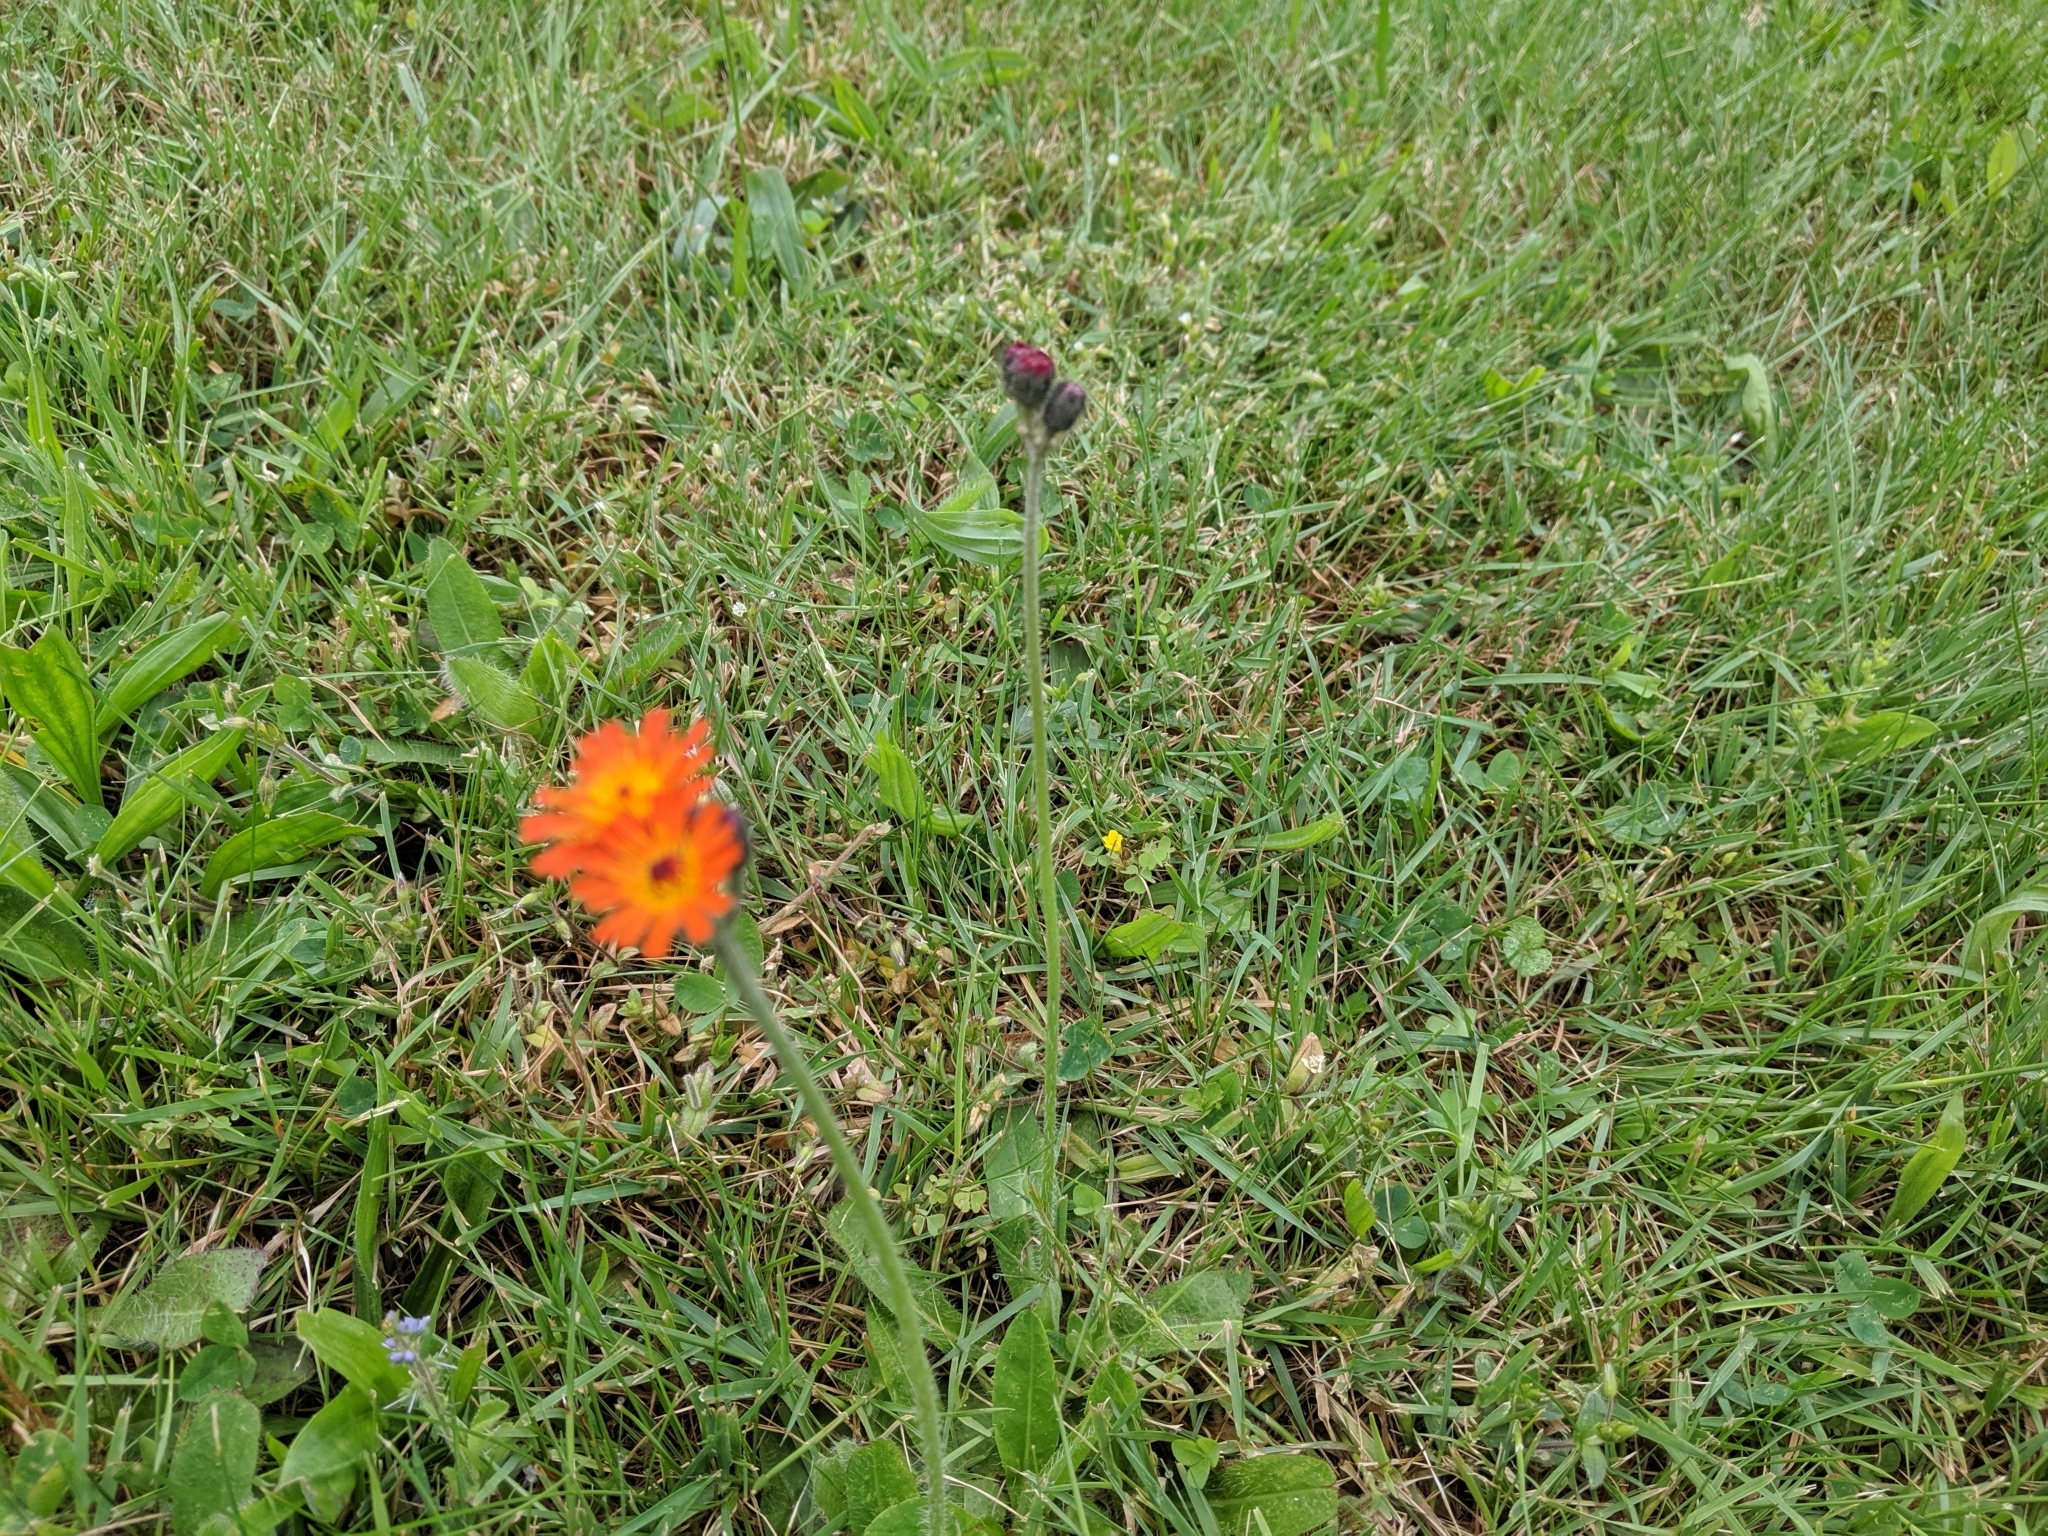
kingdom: Plantae
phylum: Tracheophyta
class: Magnoliopsida
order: Asterales
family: Asteraceae
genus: Pilosella
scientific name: Pilosella aurantiaca
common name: Fox-and-cubs
